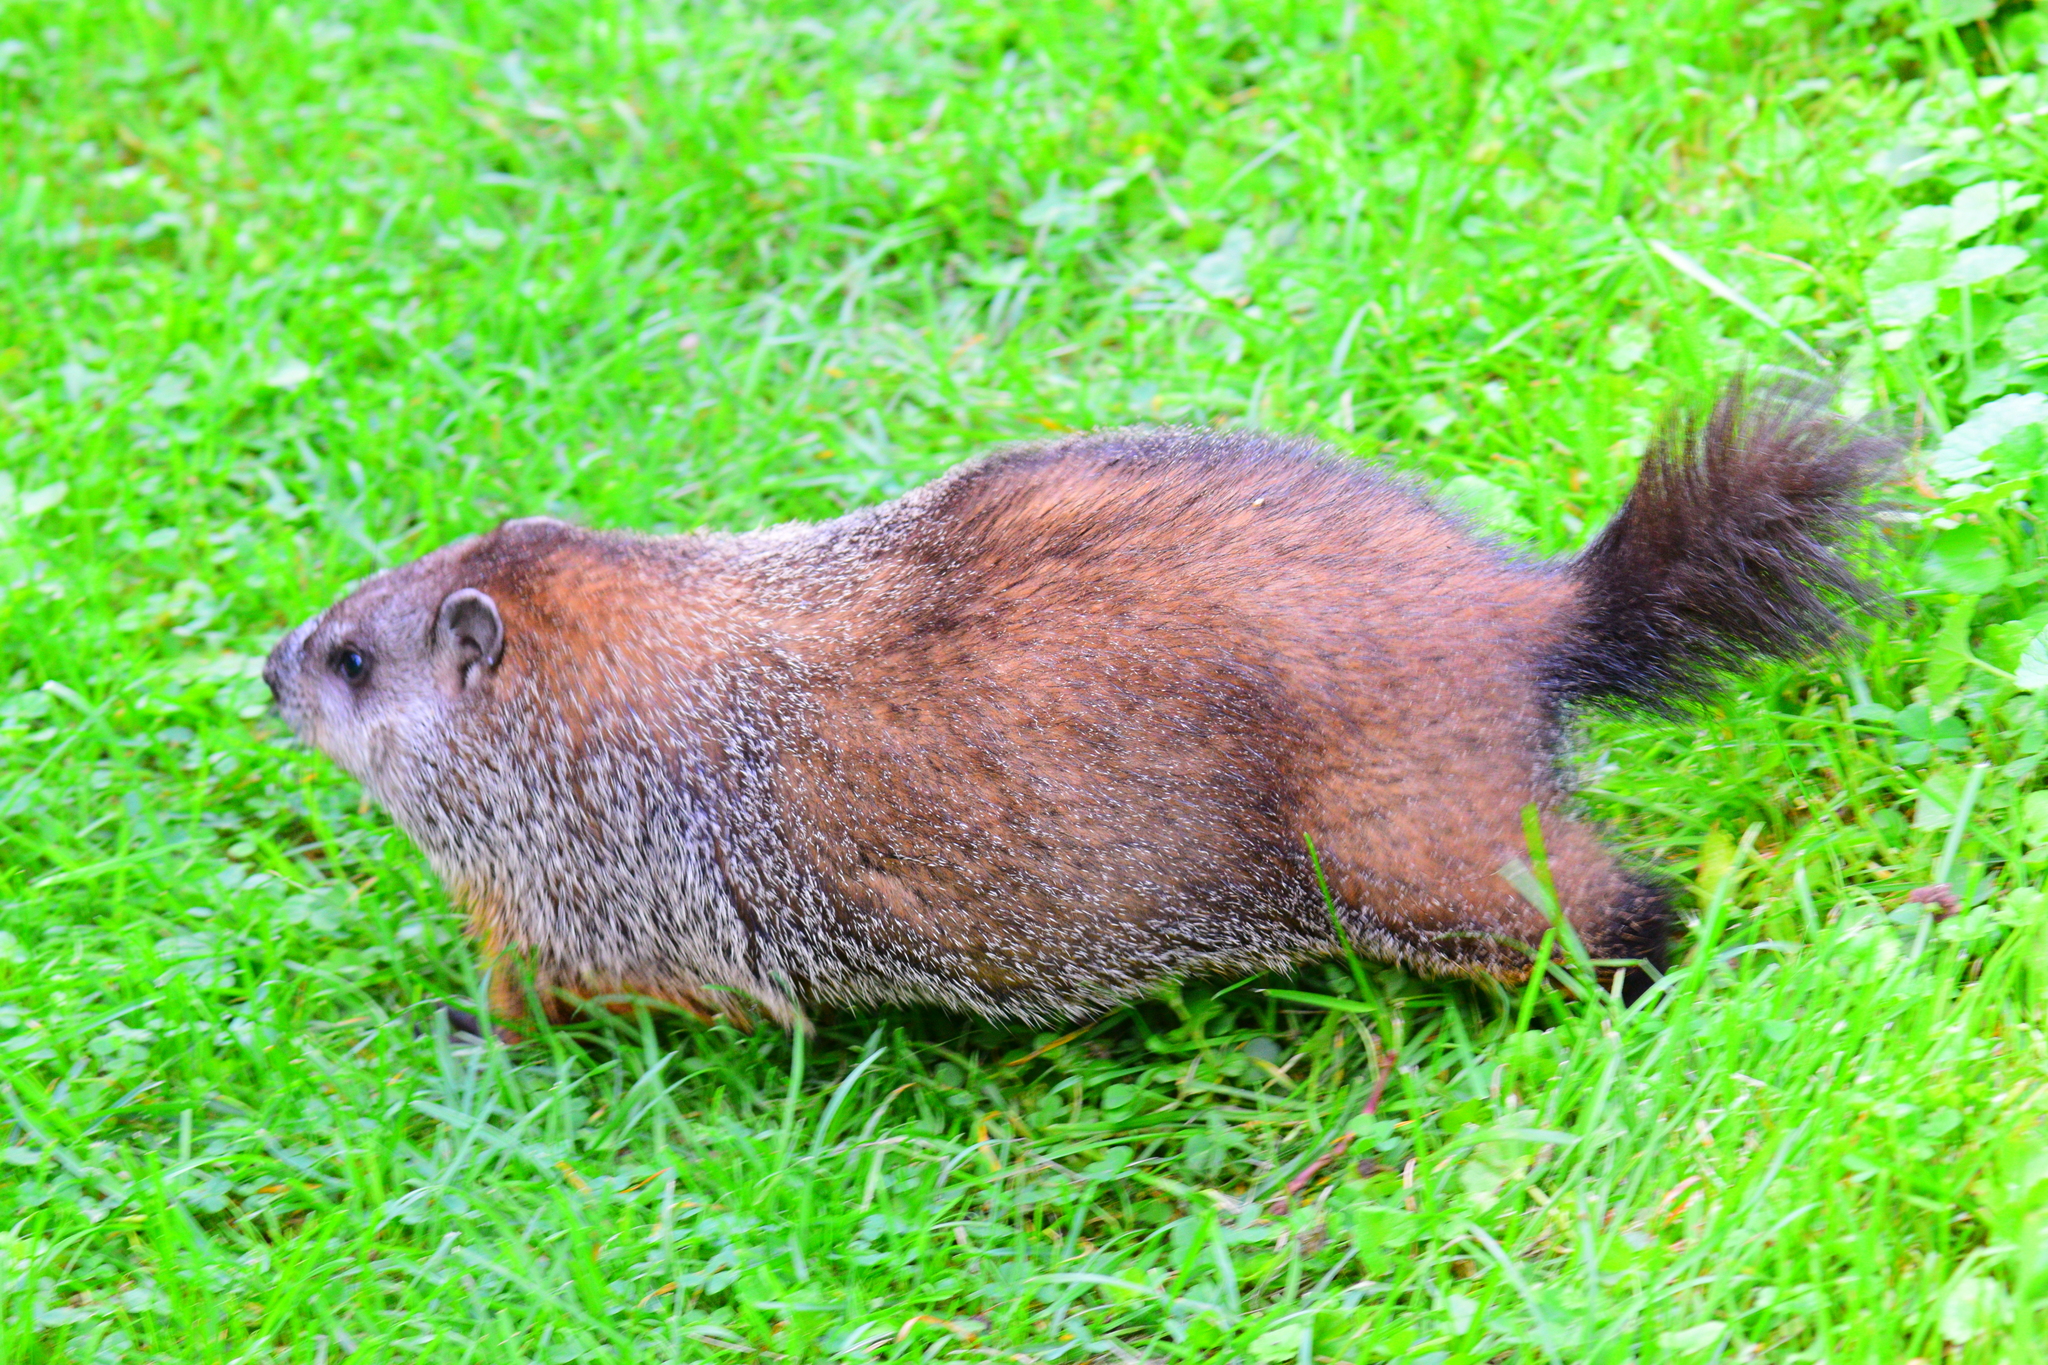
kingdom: Animalia
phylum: Chordata
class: Mammalia
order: Rodentia
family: Sciuridae
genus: Marmota
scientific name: Marmota monax
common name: Groundhog
